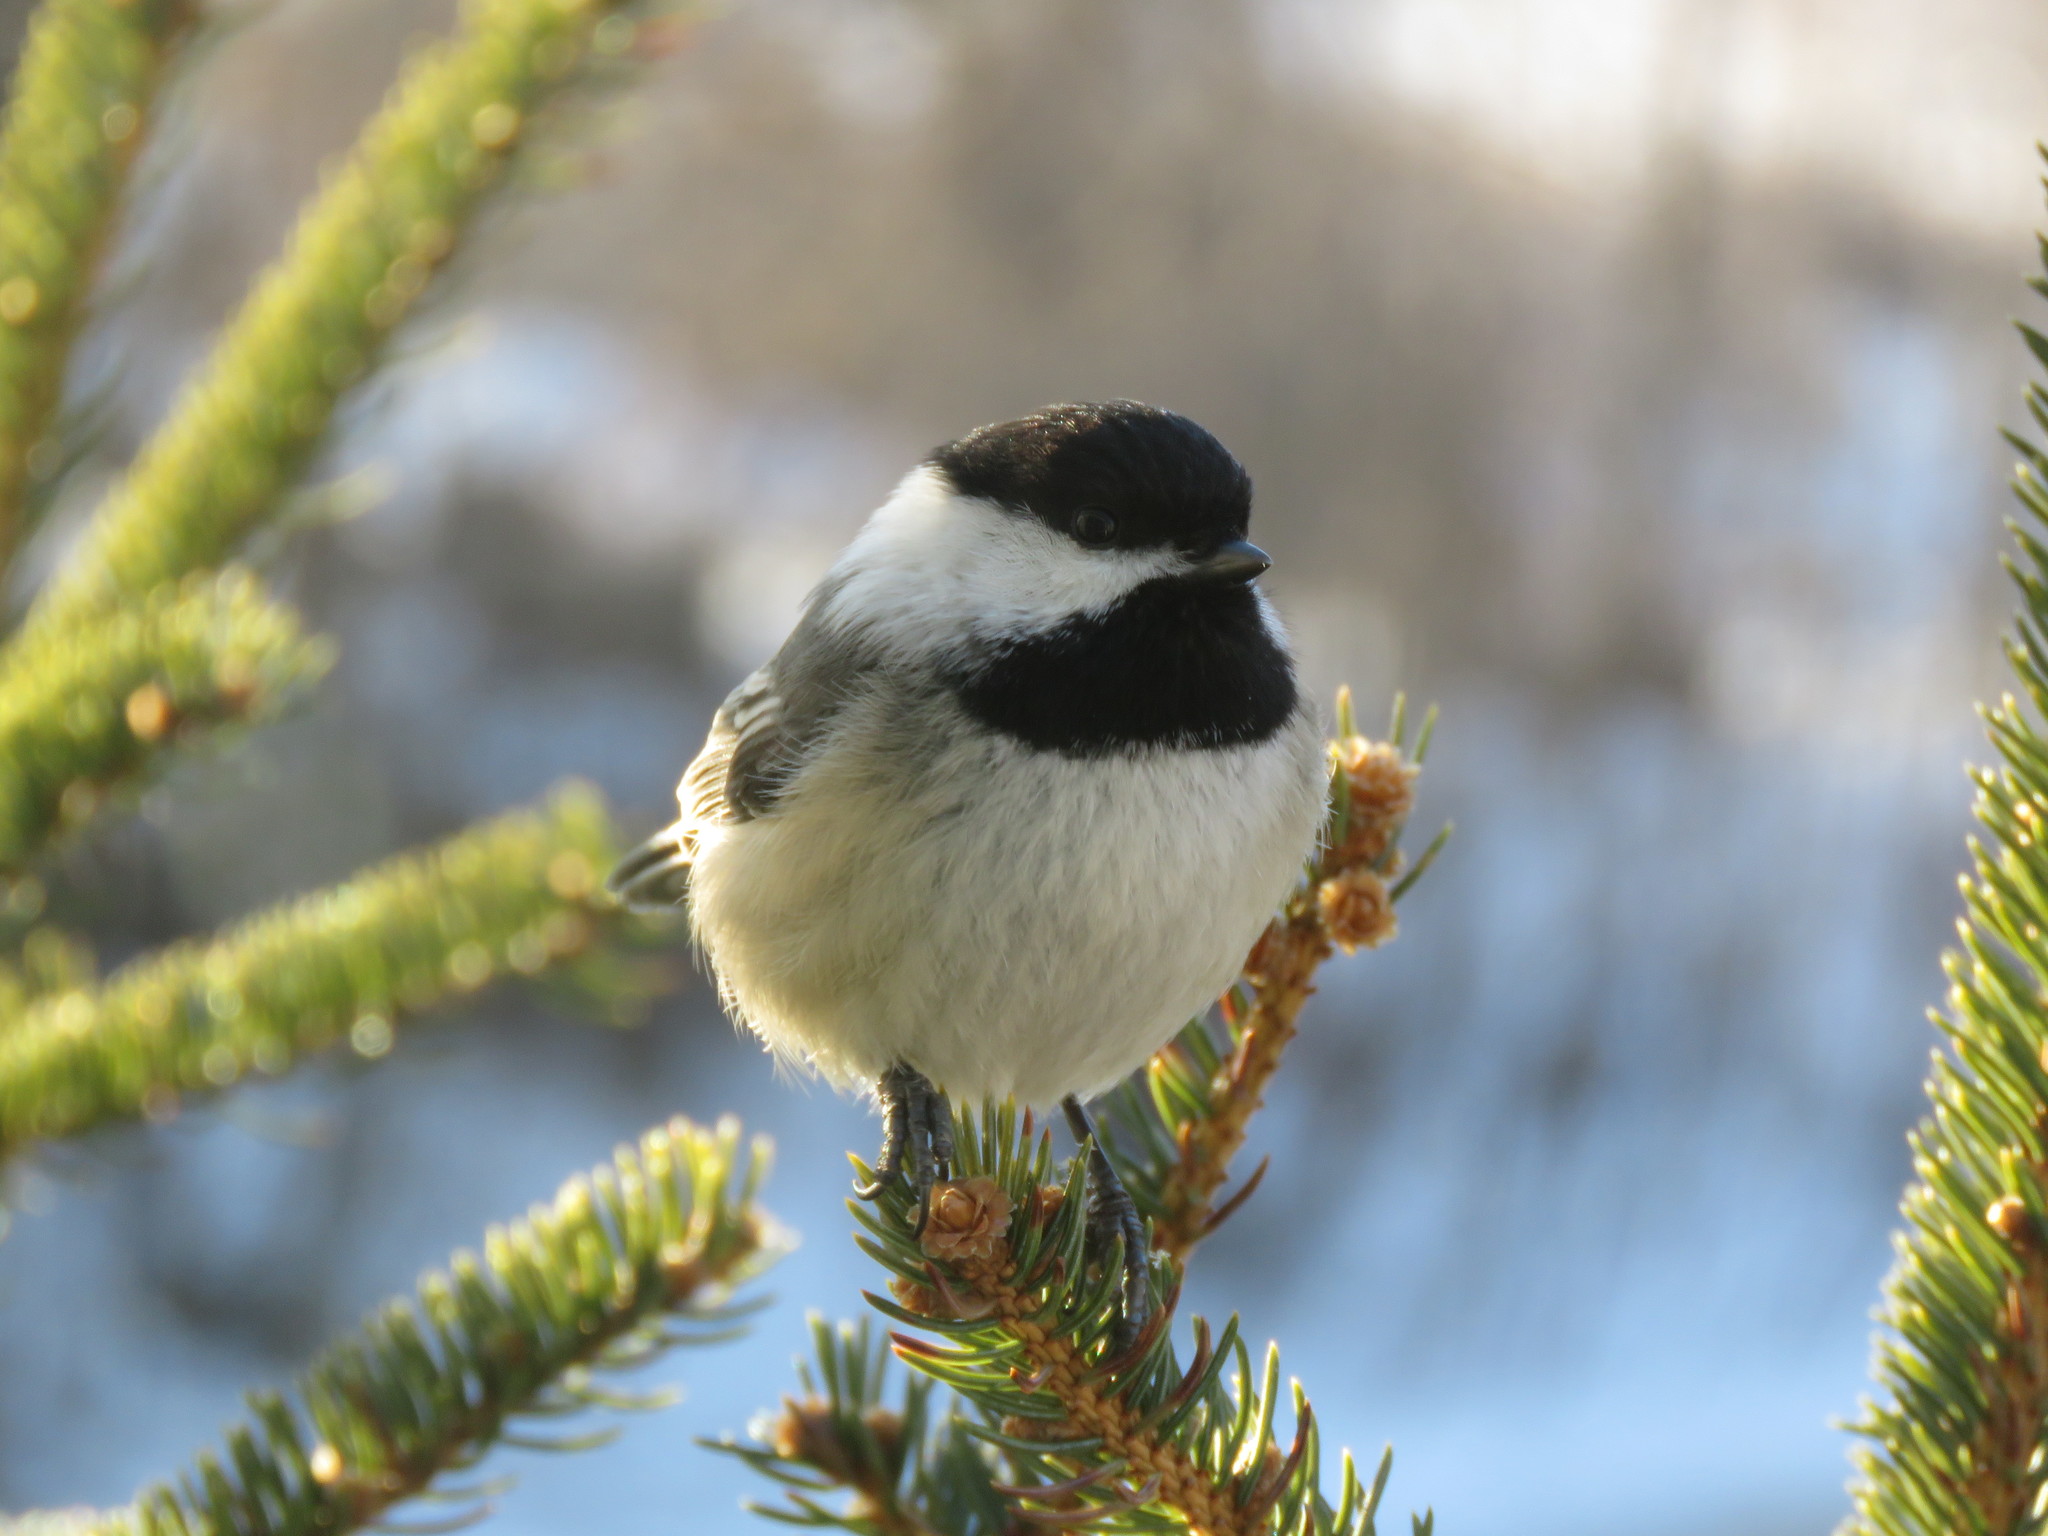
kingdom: Animalia
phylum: Chordata
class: Aves
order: Passeriformes
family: Paridae
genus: Poecile
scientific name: Poecile atricapillus
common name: Black-capped chickadee
